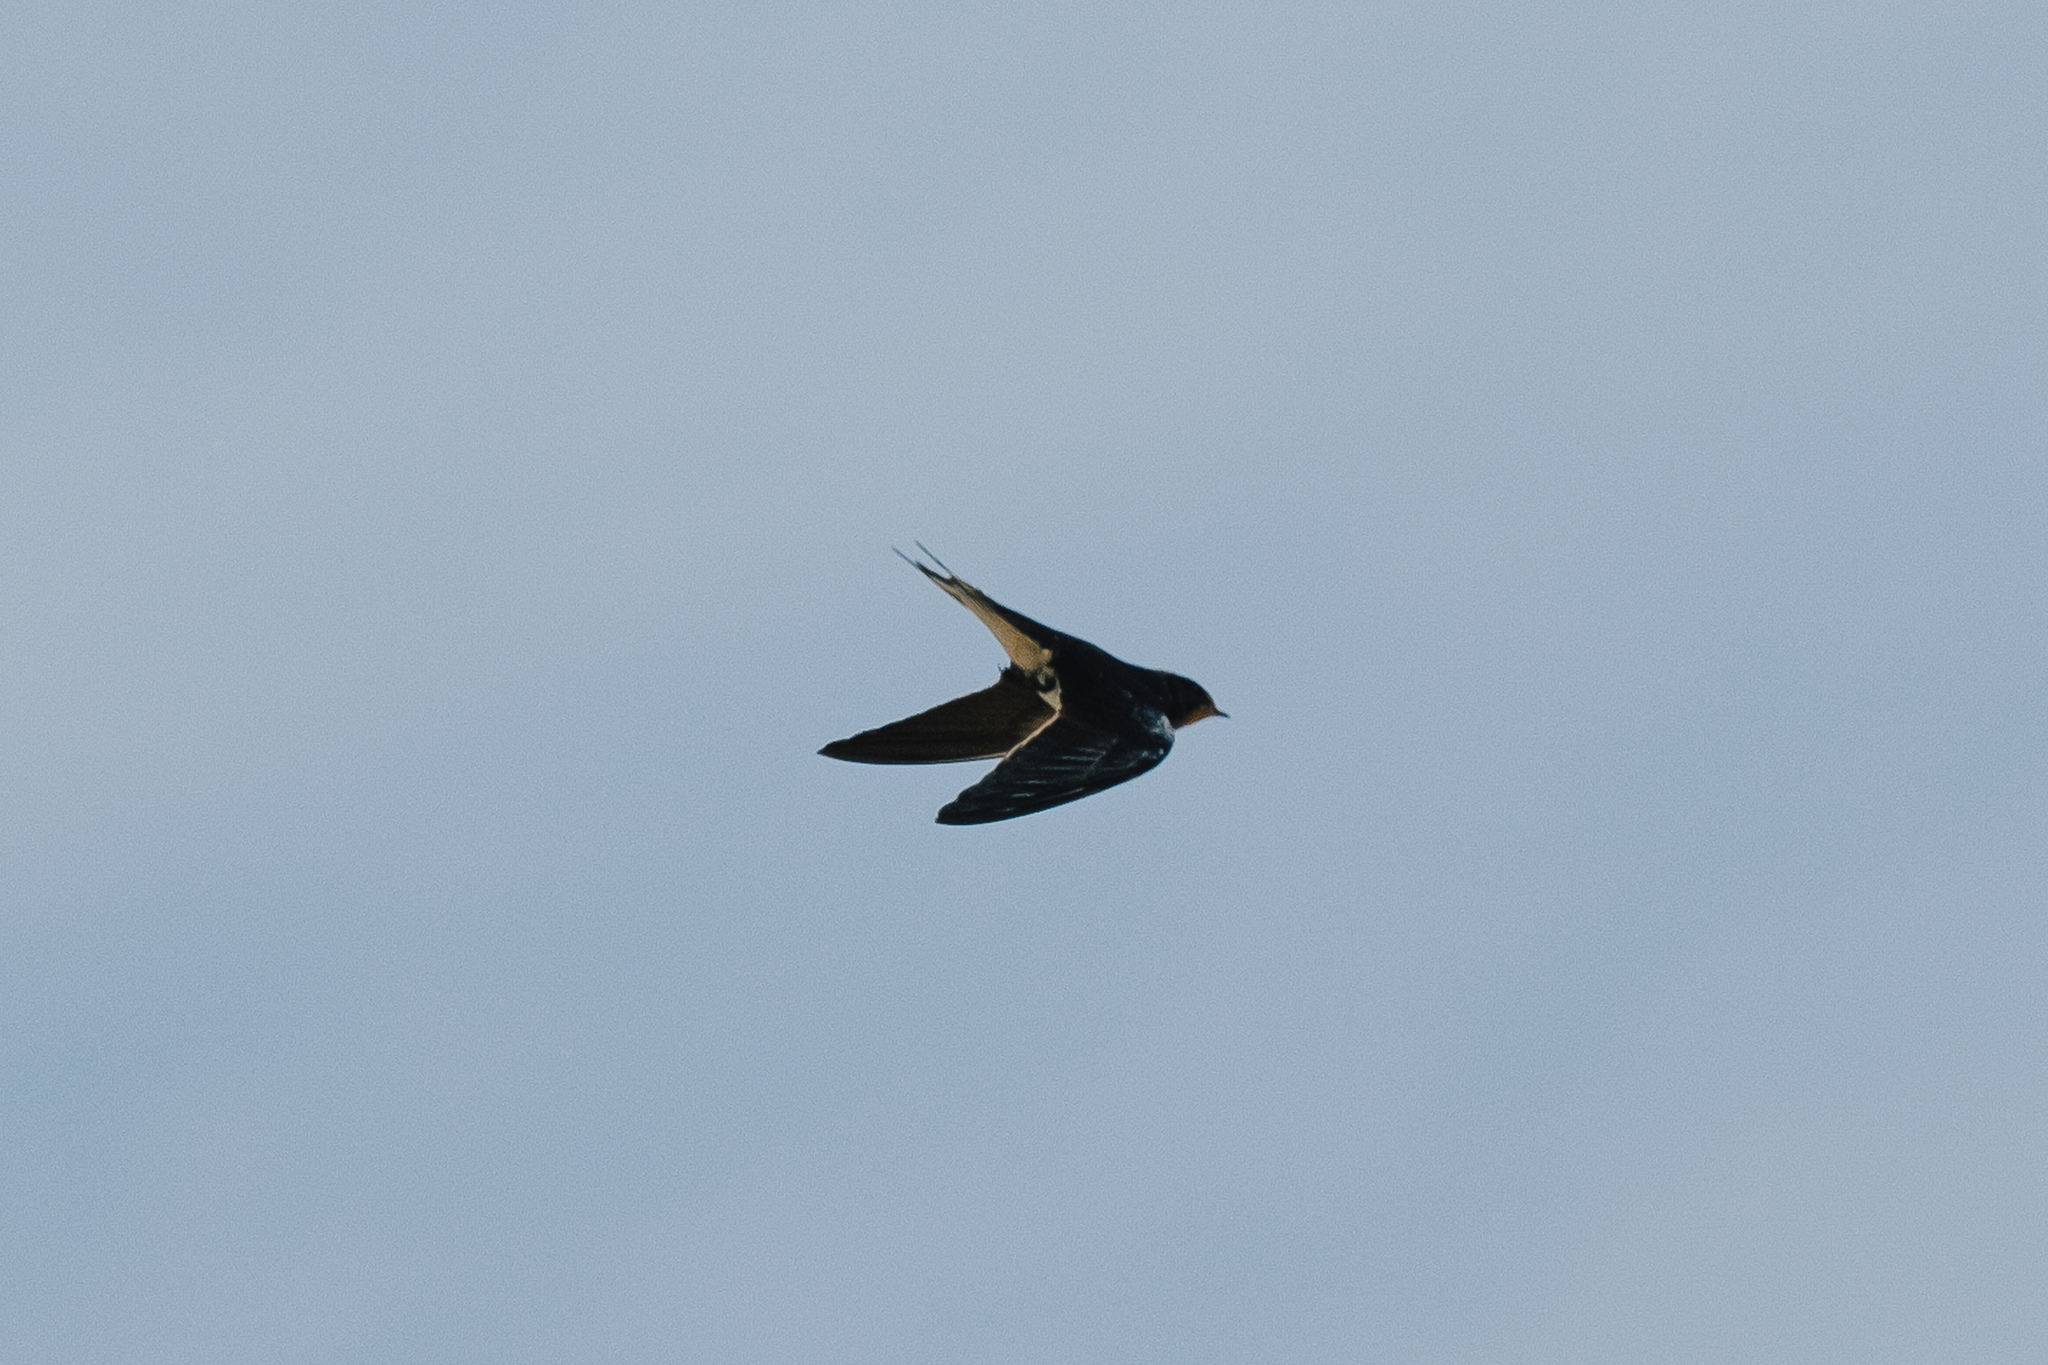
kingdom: Animalia
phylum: Chordata
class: Aves
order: Passeriformes
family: Hirundinidae
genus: Hirundo
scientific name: Hirundo rustica
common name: Barn swallow
